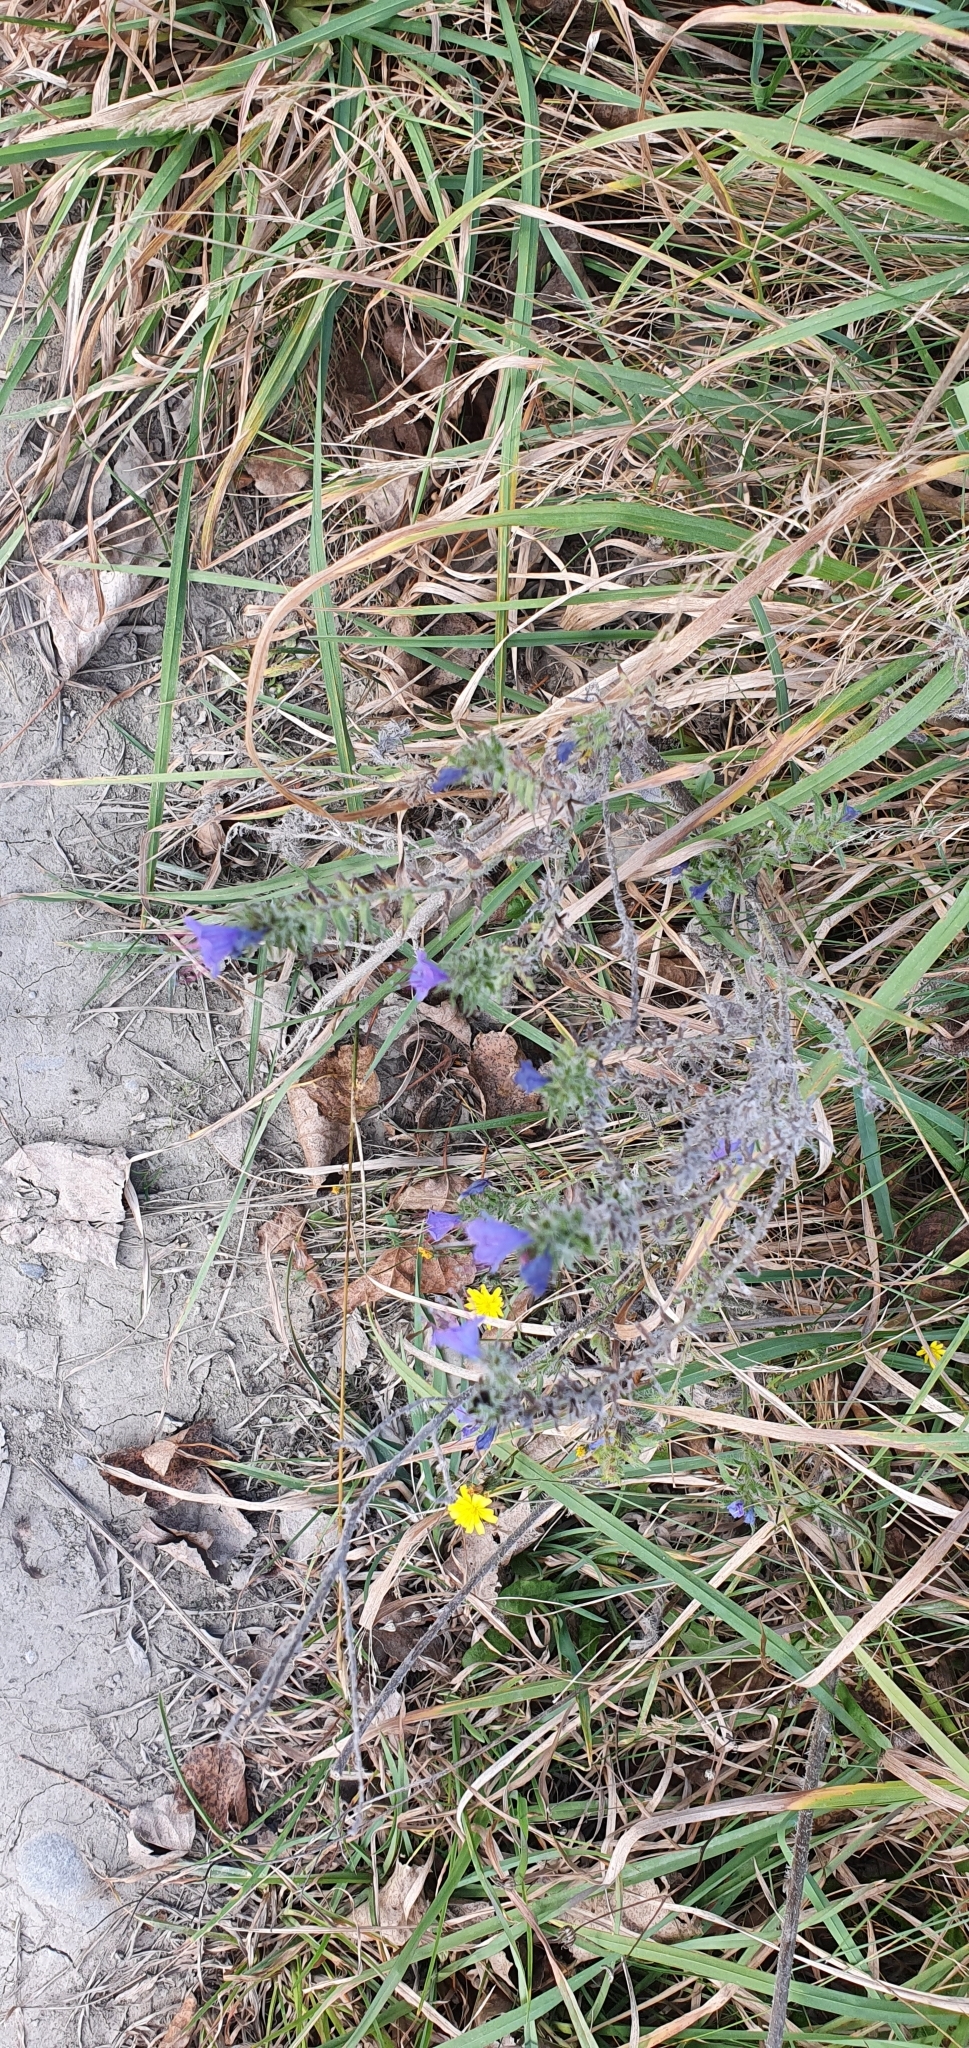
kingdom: Plantae
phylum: Tracheophyta
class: Magnoliopsida
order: Boraginales
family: Boraginaceae
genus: Echium
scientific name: Echium vulgare
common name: Common viper's bugloss
